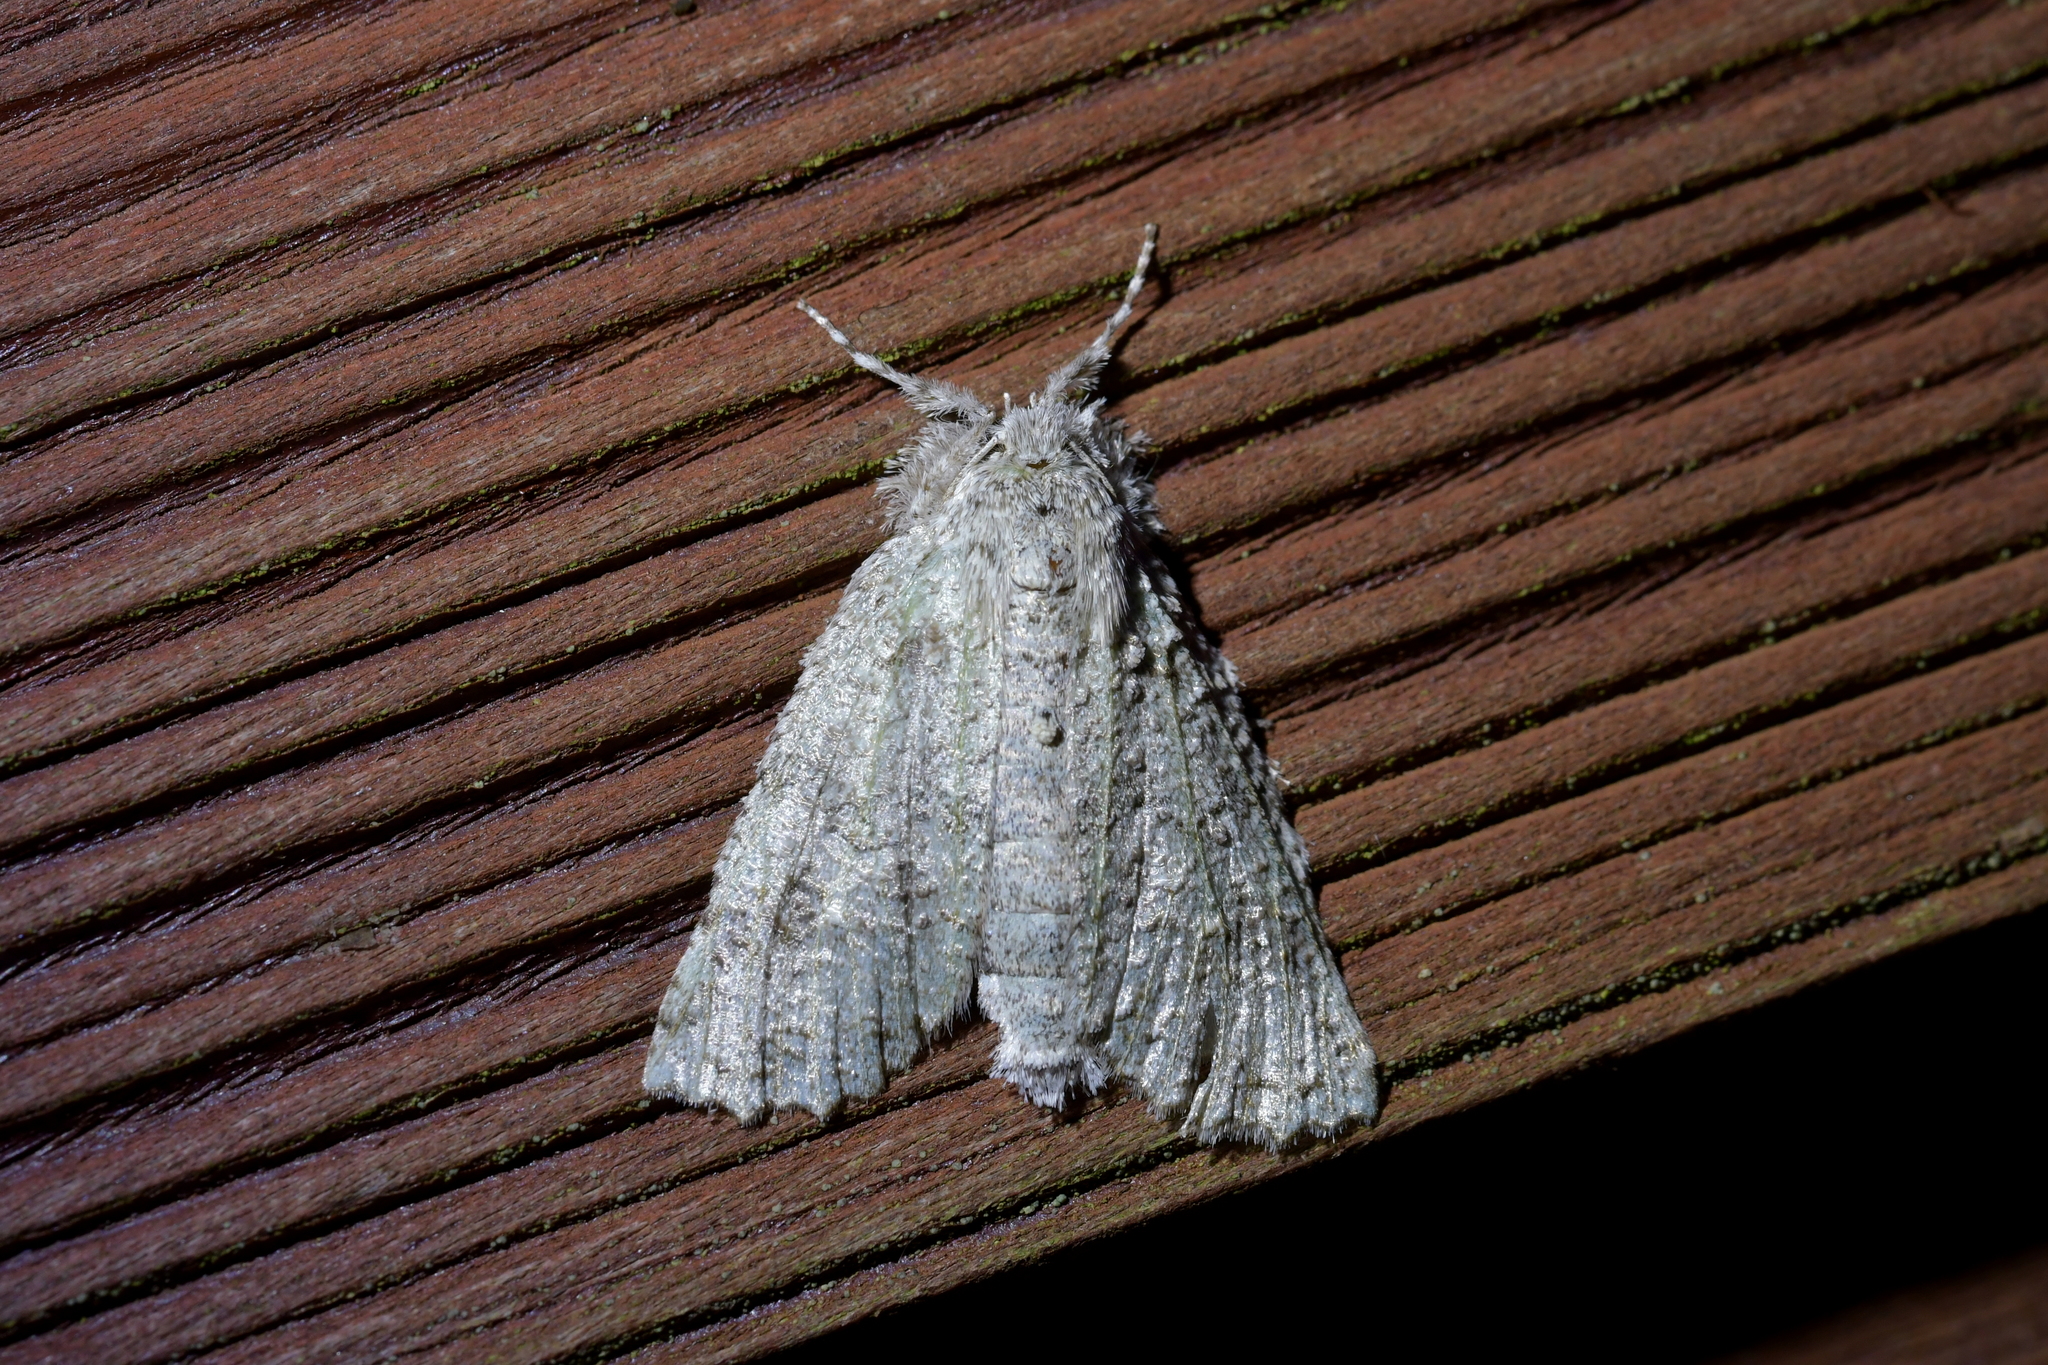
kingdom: Animalia
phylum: Arthropoda
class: Insecta
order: Lepidoptera
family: Geometridae
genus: Declana
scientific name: Declana floccosa
